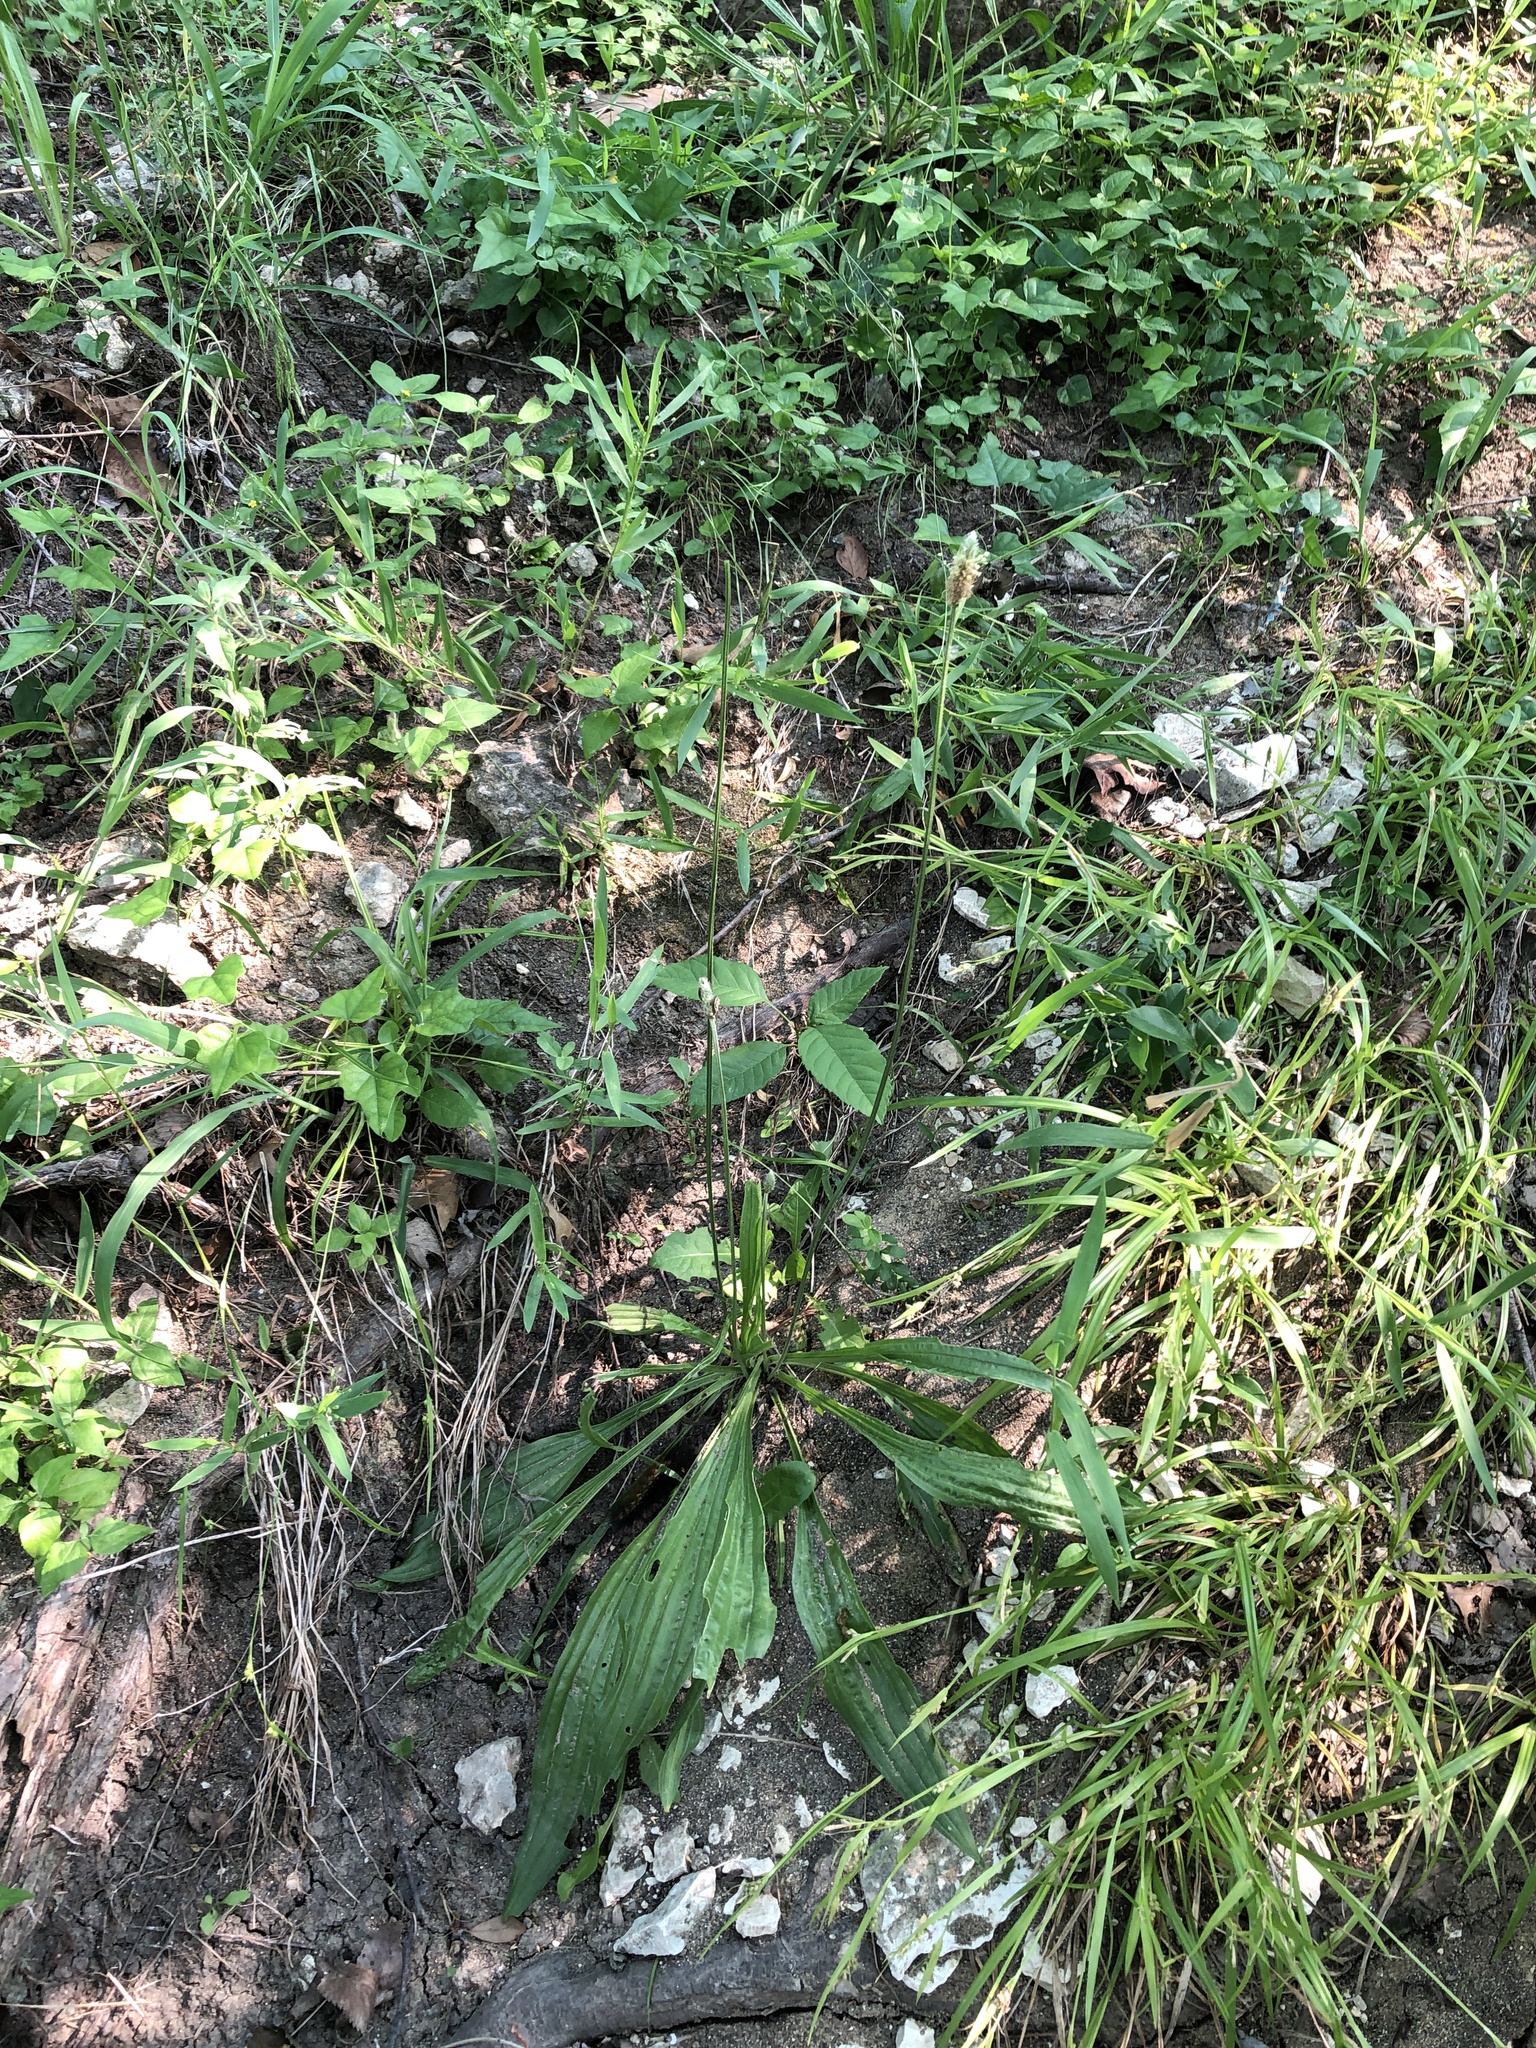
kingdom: Plantae
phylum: Tracheophyta
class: Magnoliopsida
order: Lamiales
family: Plantaginaceae
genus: Plantago
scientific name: Plantago lanceolata
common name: Ribwort plantain
